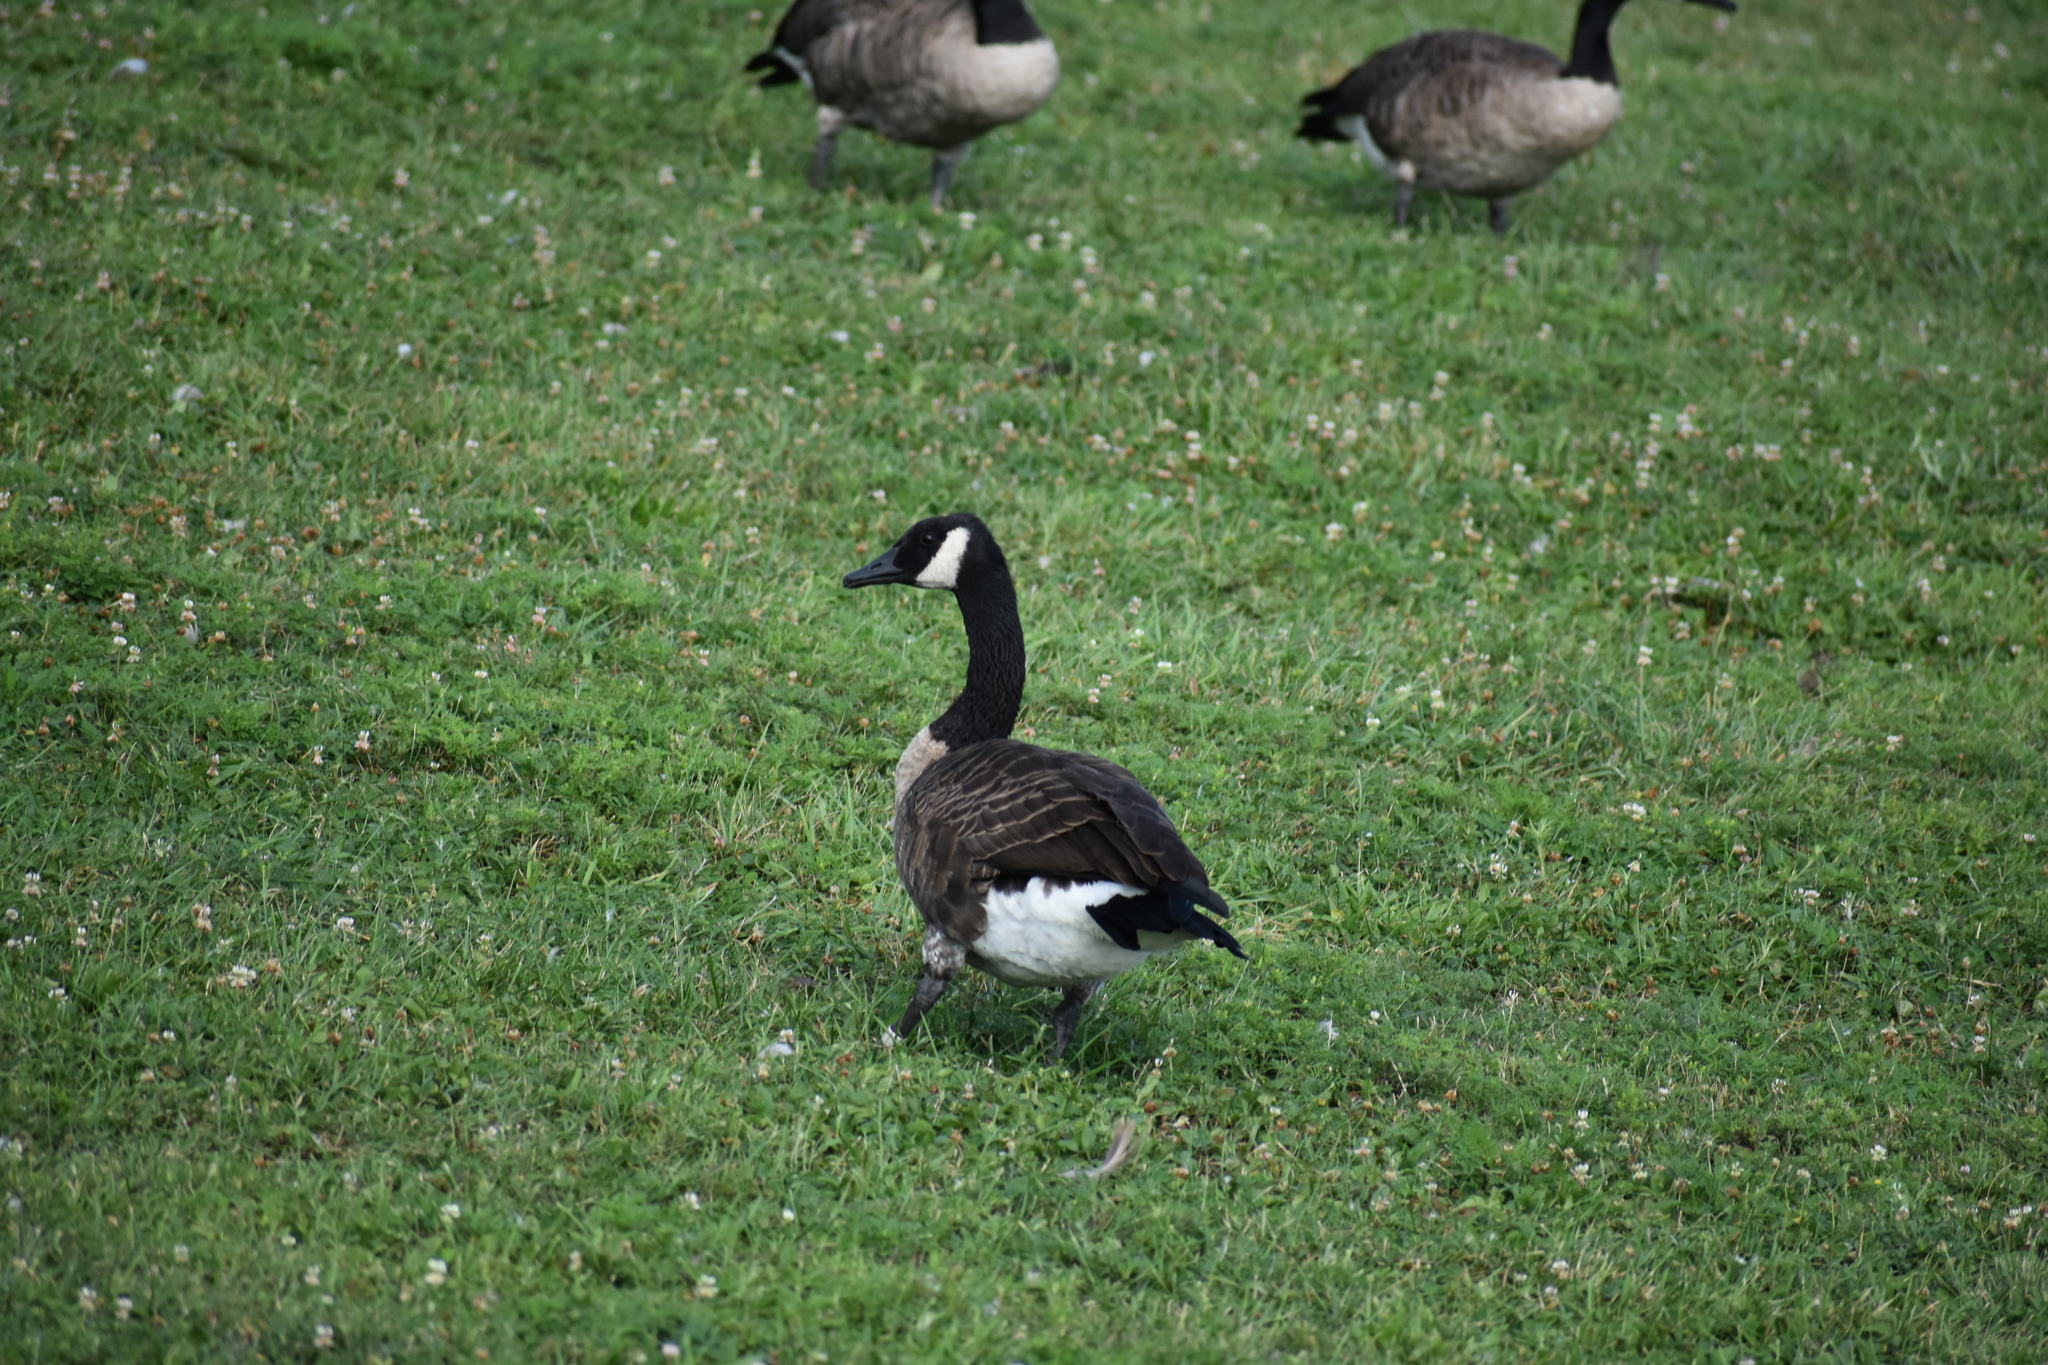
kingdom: Animalia
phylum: Chordata
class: Aves
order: Anseriformes
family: Anatidae
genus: Branta
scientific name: Branta canadensis
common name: Canada goose
